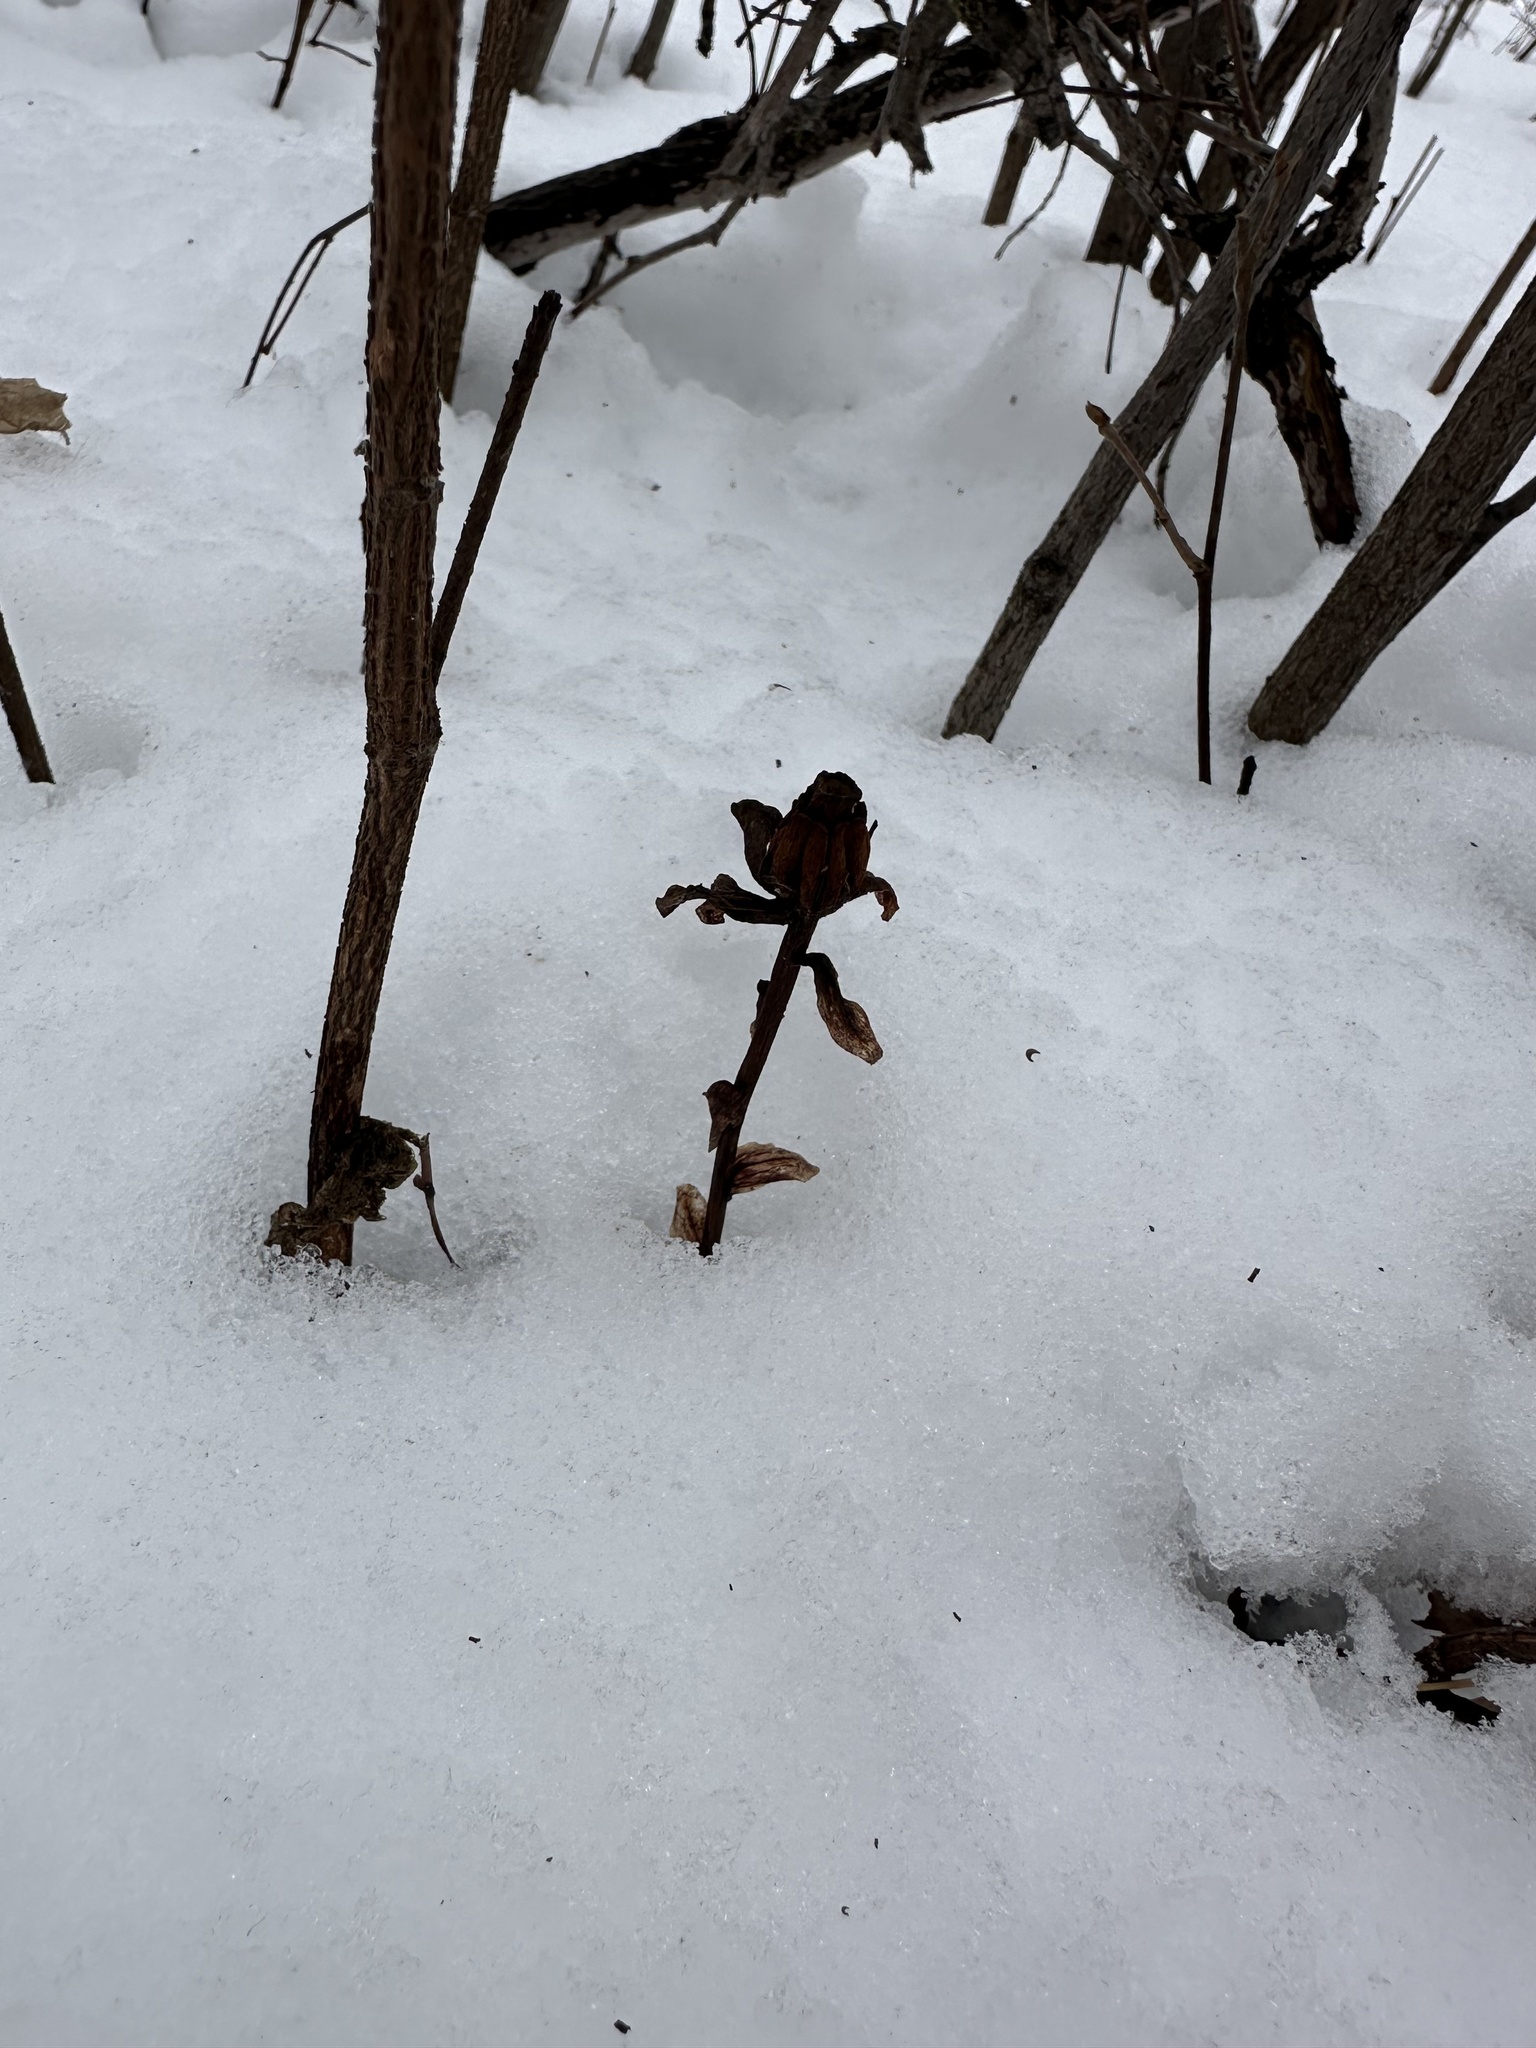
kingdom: Plantae
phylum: Tracheophyta
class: Magnoliopsida
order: Ericales
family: Ericaceae
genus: Monotropa
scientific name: Monotropa uniflora
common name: Convulsion root
